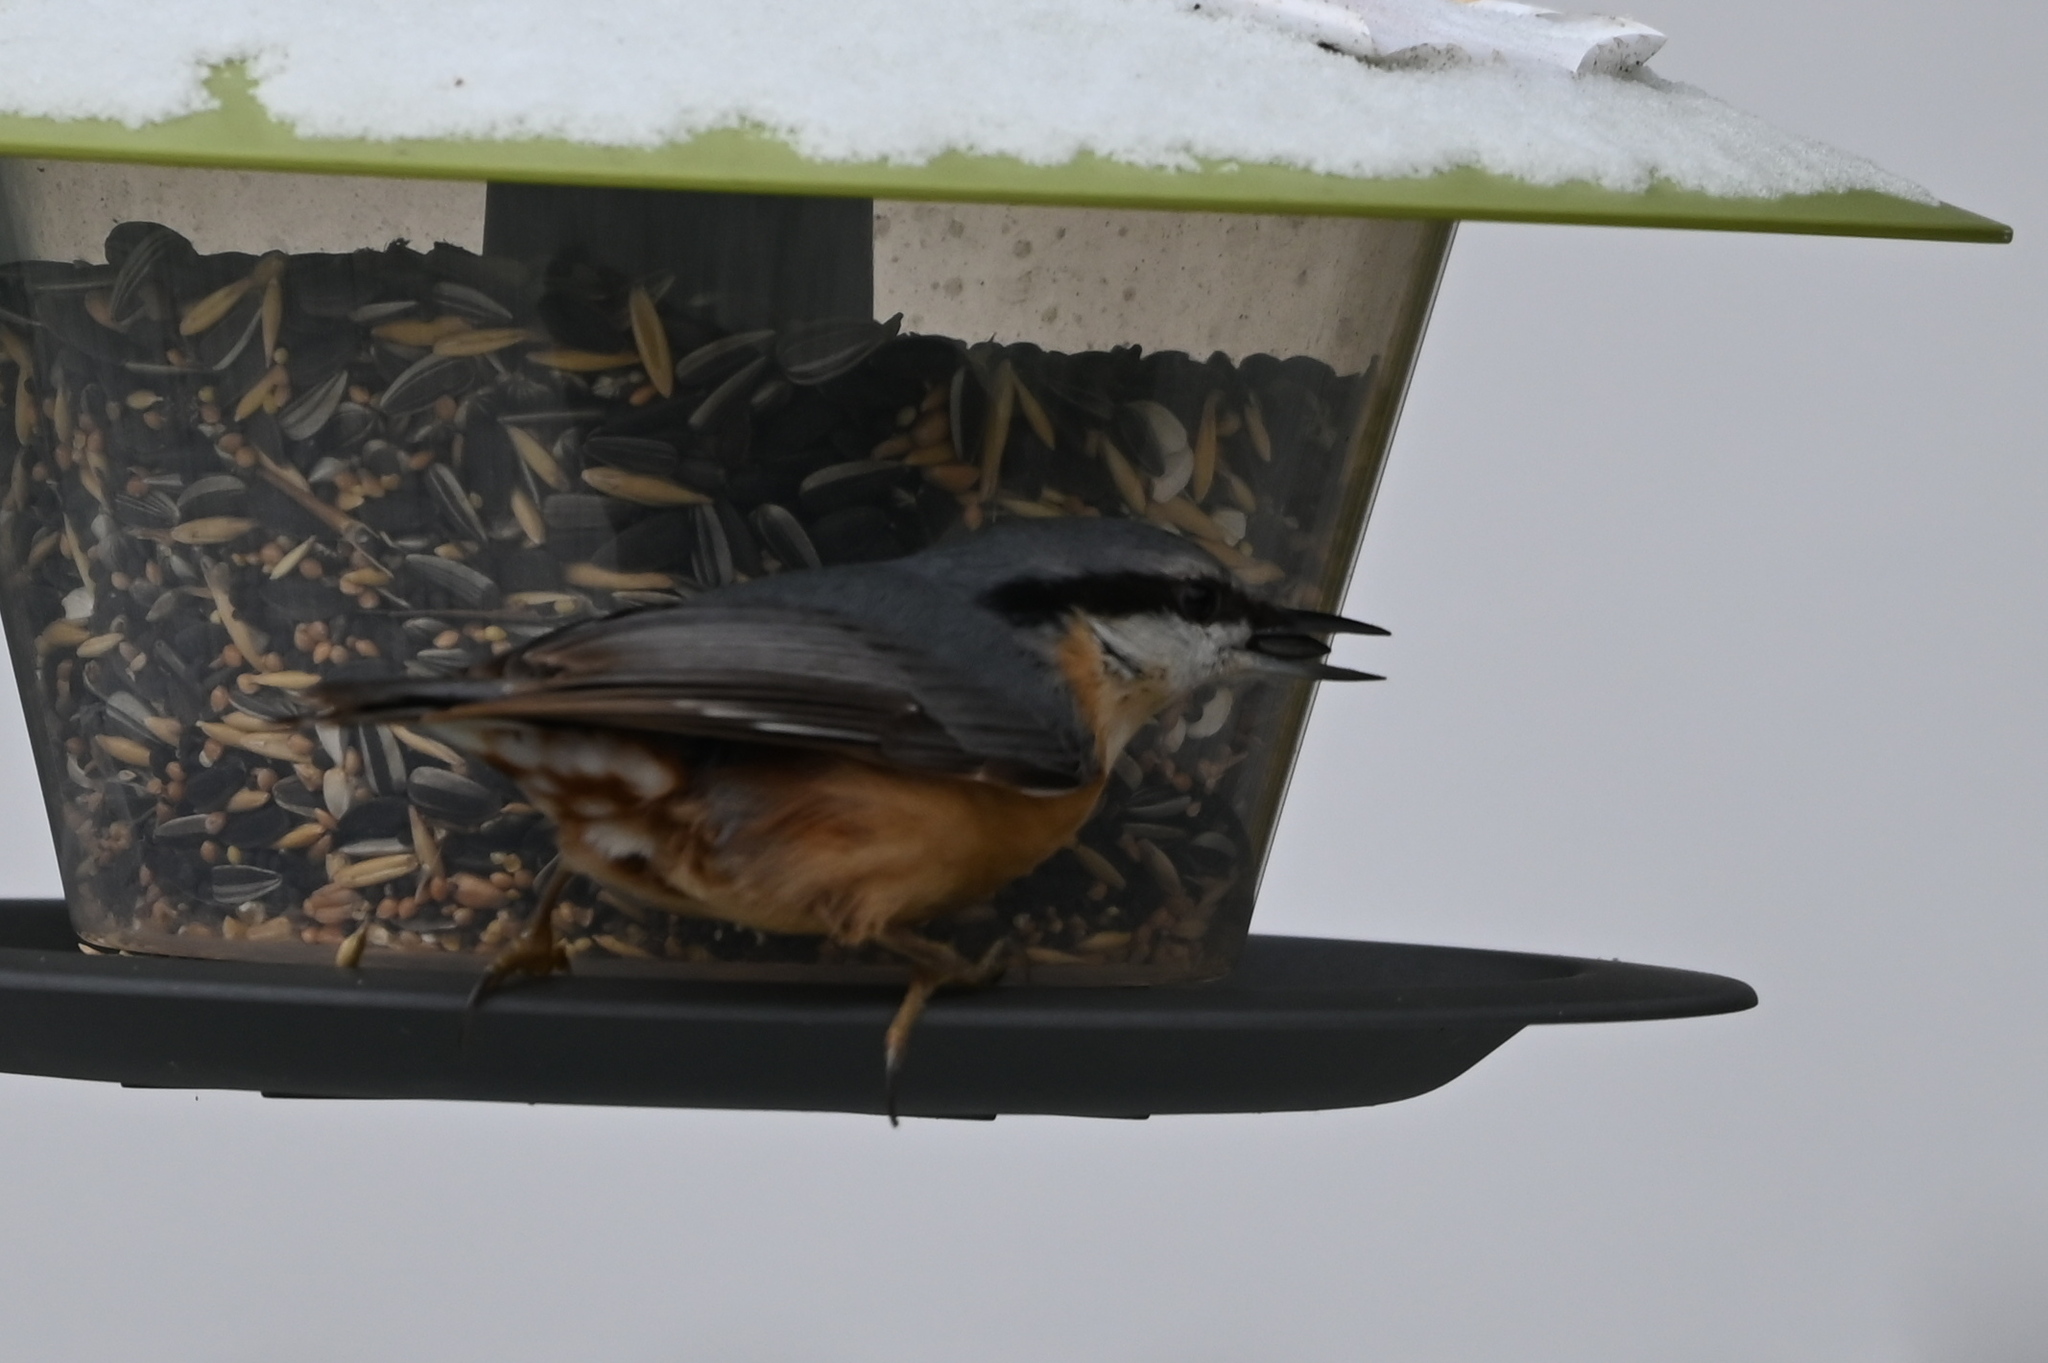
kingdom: Animalia
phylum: Chordata
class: Aves
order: Passeriformes
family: Sittidae
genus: Sitta
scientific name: Sitta europaea
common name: Eurasian nuthatch
